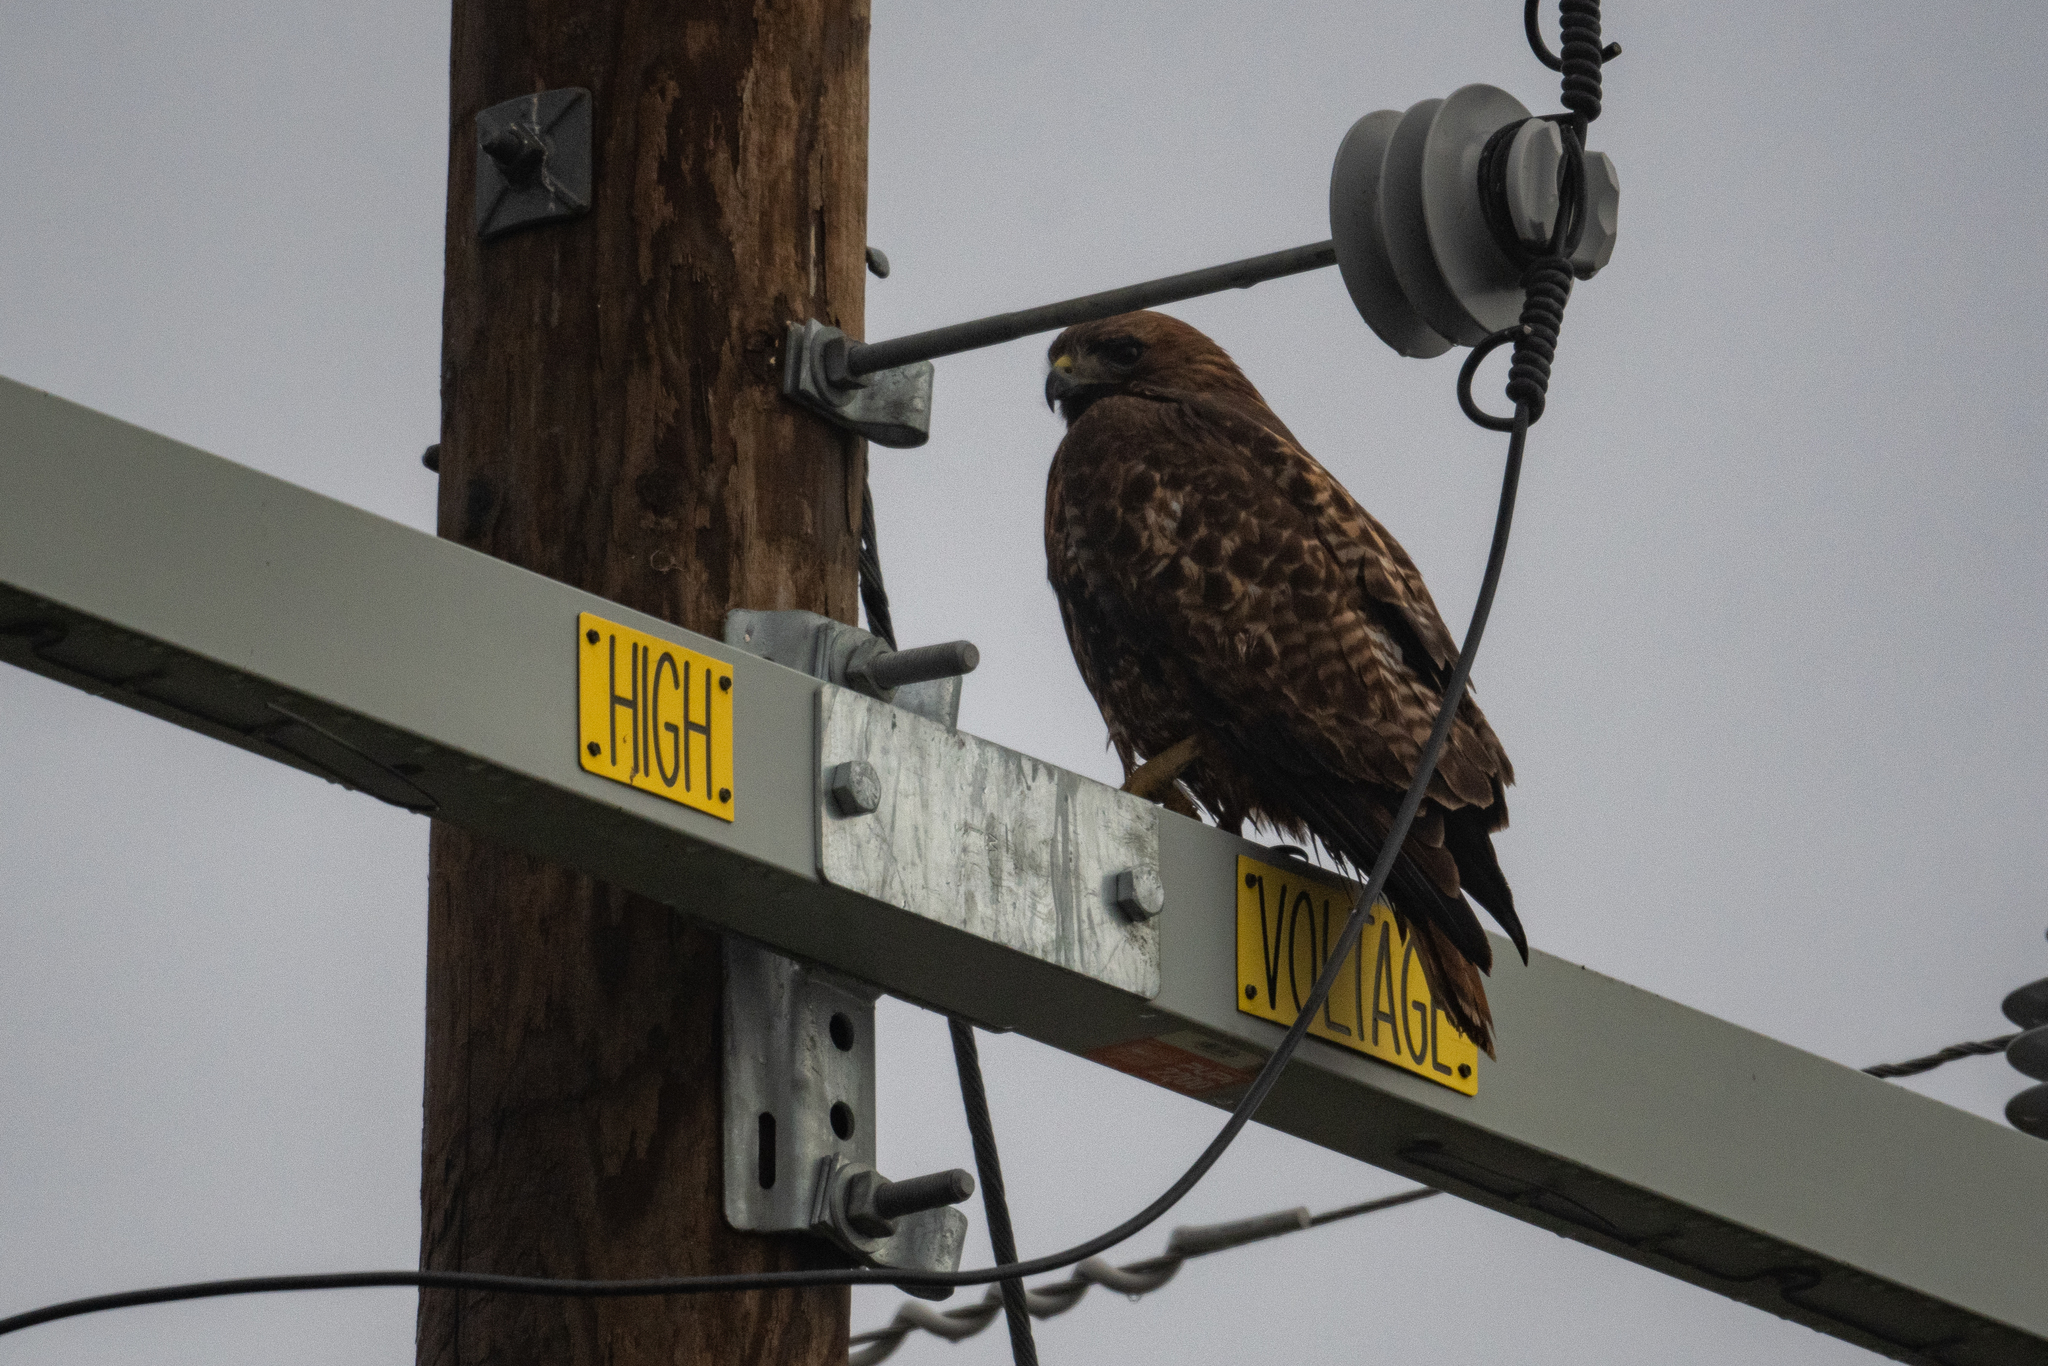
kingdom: Animalia
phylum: Chordata
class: Aves
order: Accipitriformes
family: Accipitridae
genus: Buteo
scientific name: Buteo jamaicensis
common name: Red-tailed hawk
